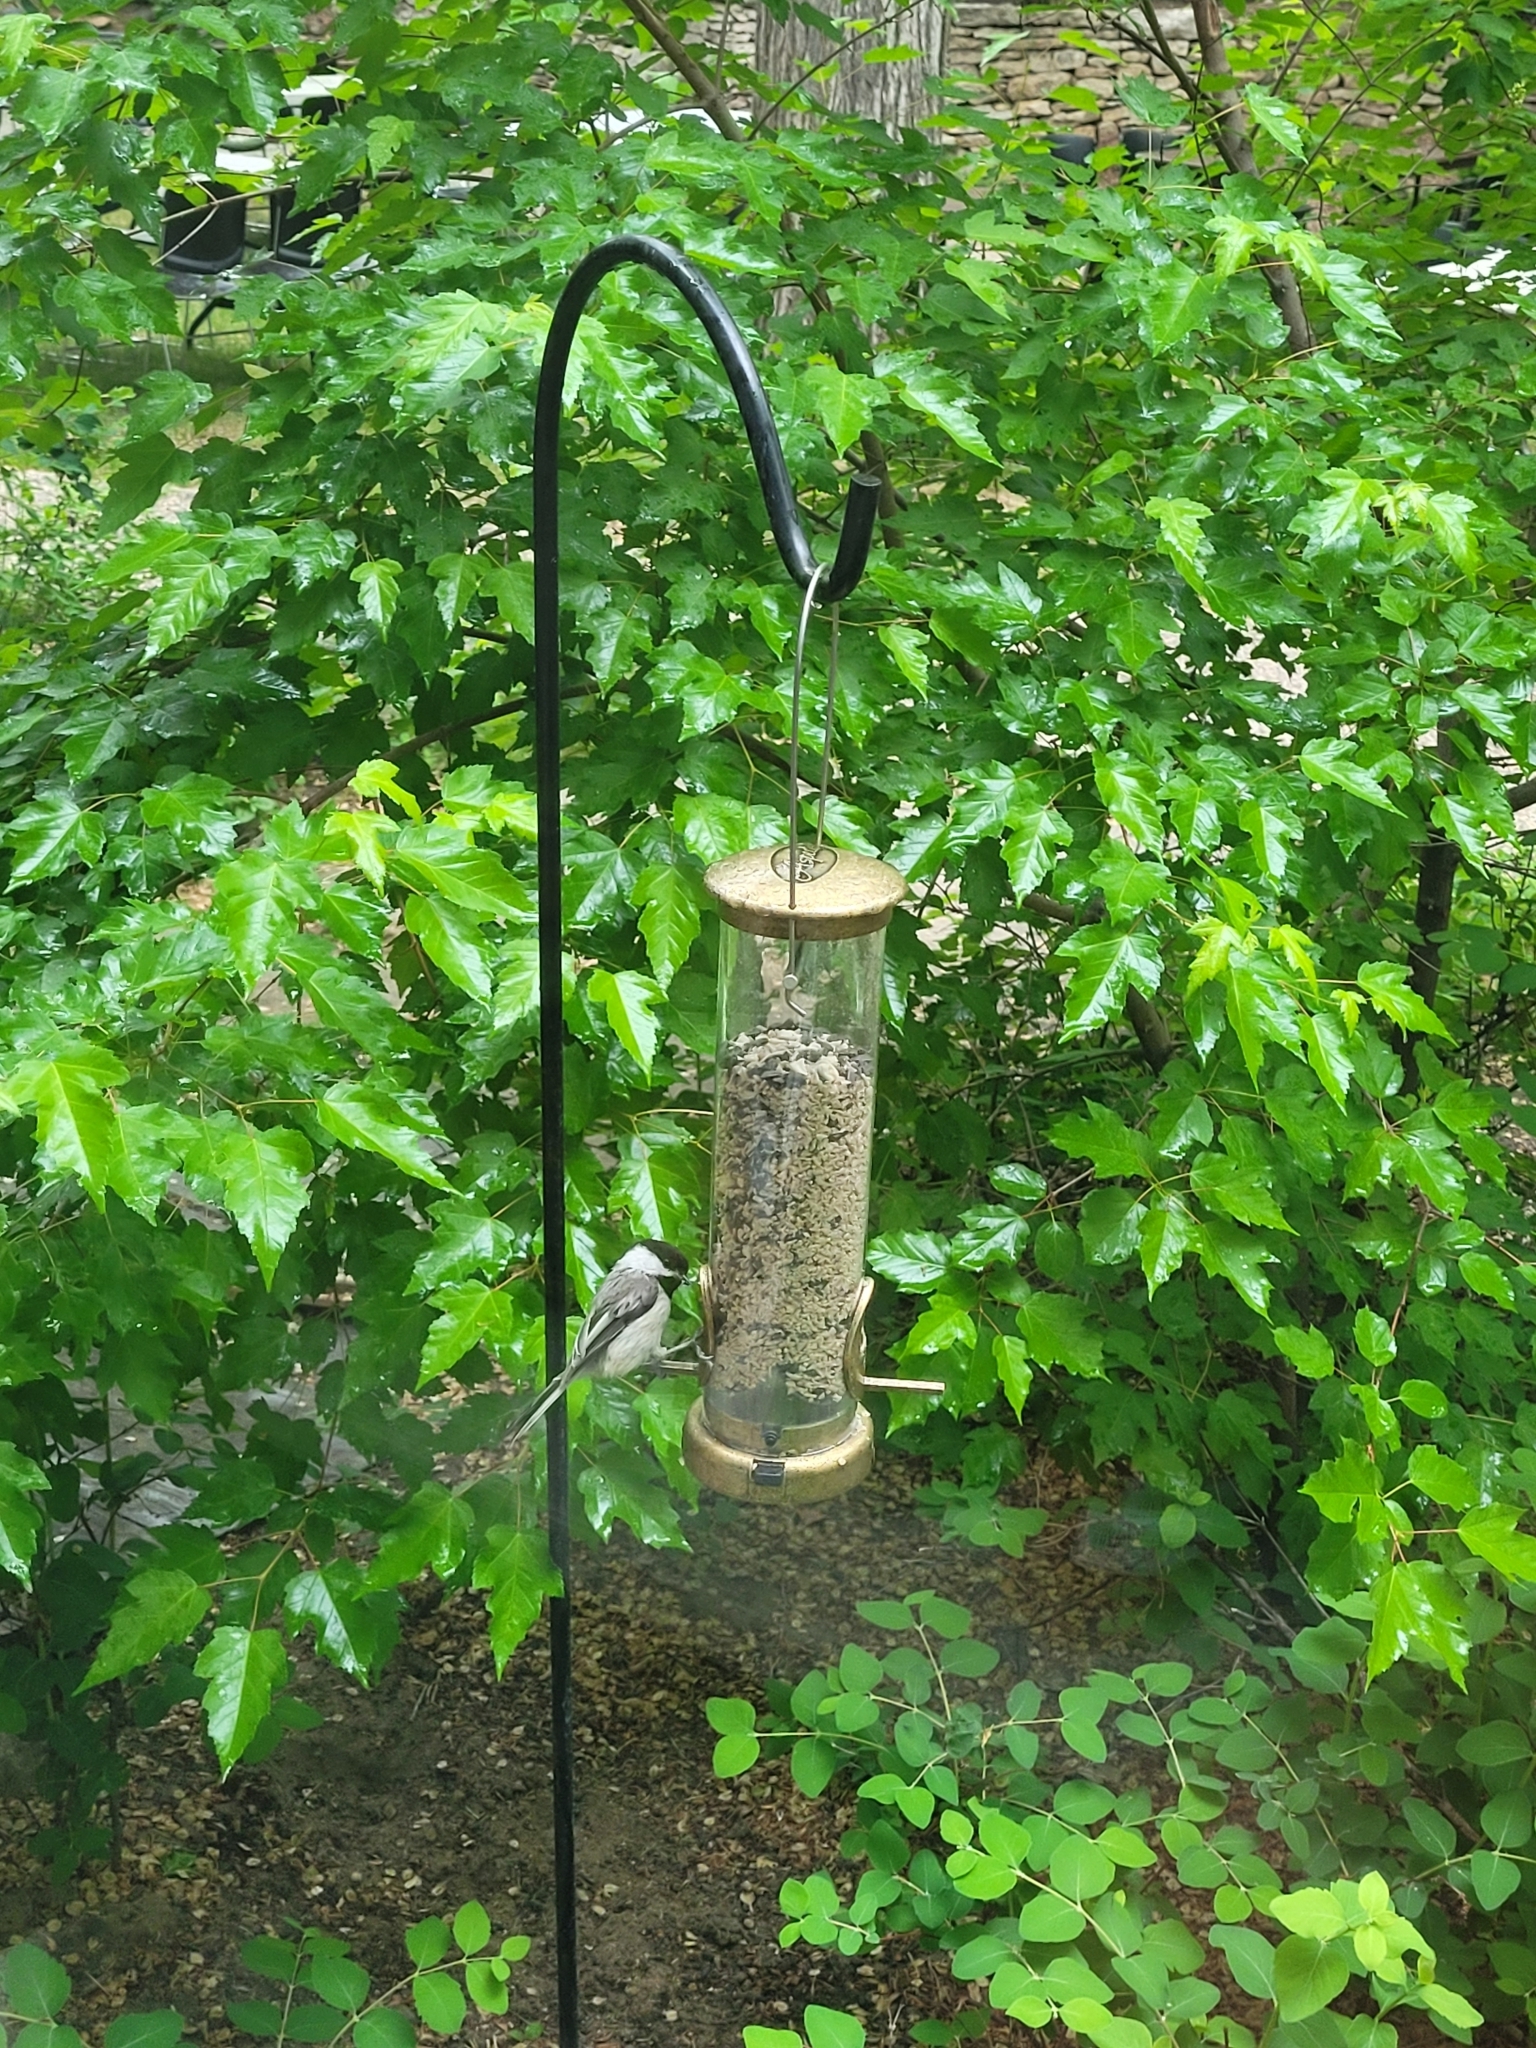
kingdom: Animalia
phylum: Chordata
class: Aves
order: Passeriformes
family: Paridae
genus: Poecile
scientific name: Poecile atricapillus
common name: Black-capped chickadee
